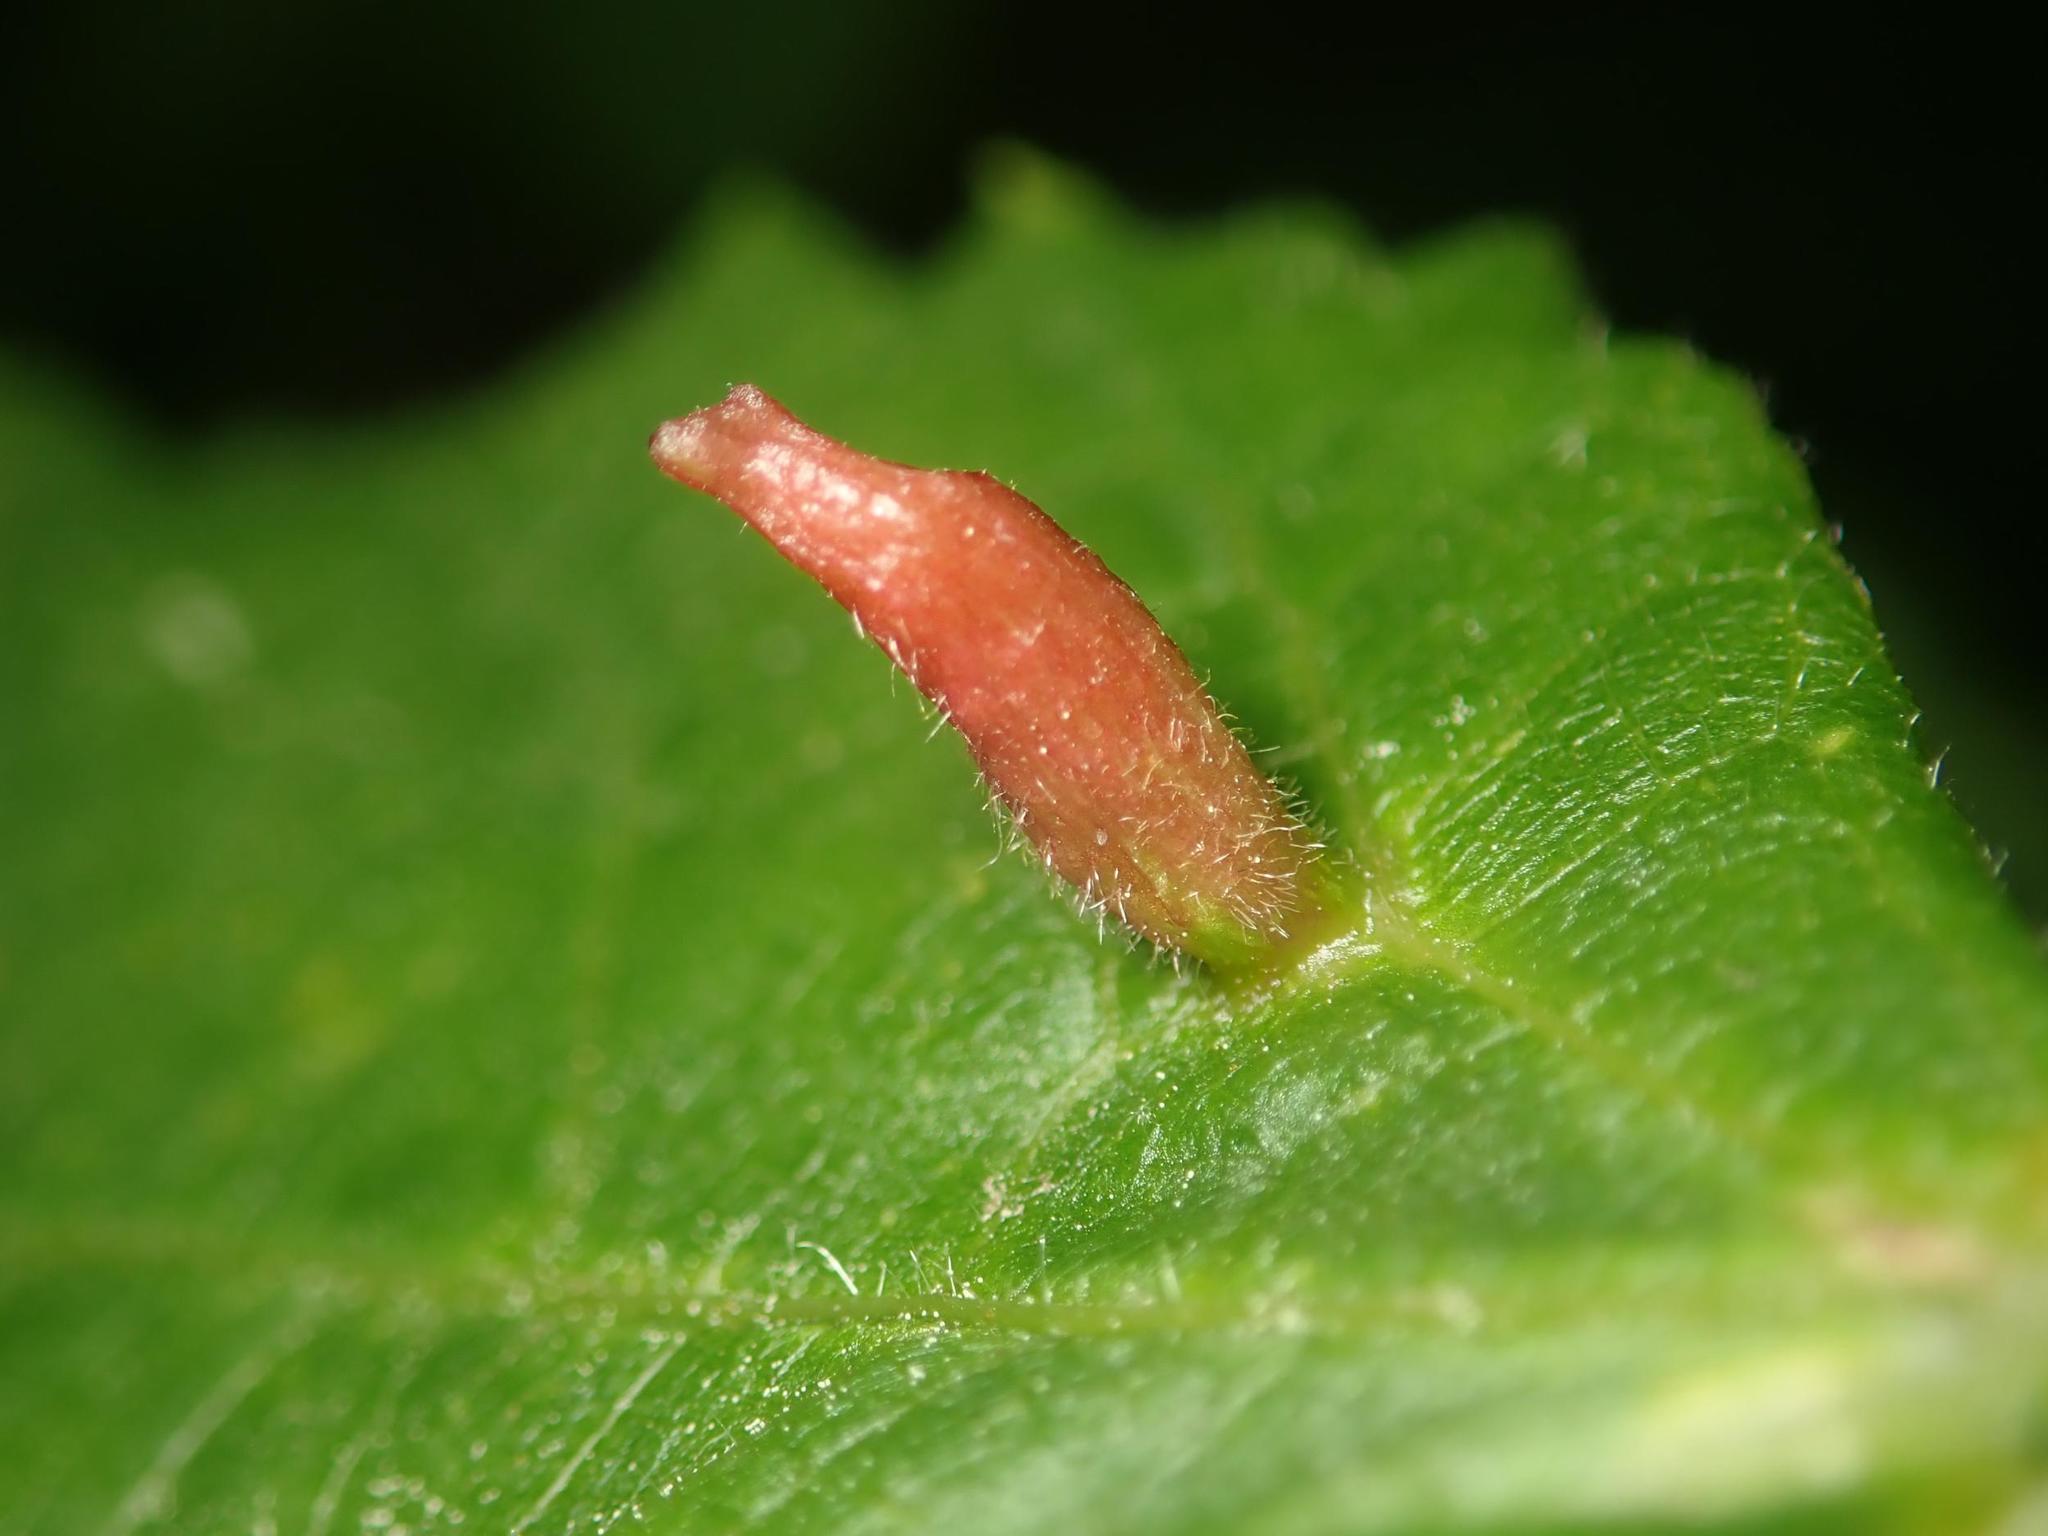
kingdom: Animalia
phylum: Arthropoda
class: Arachnida
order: Trombidiformes
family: Eriophyidae
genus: Eriophyes
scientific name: Eriophyes tiliae
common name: Red nail gall mite
